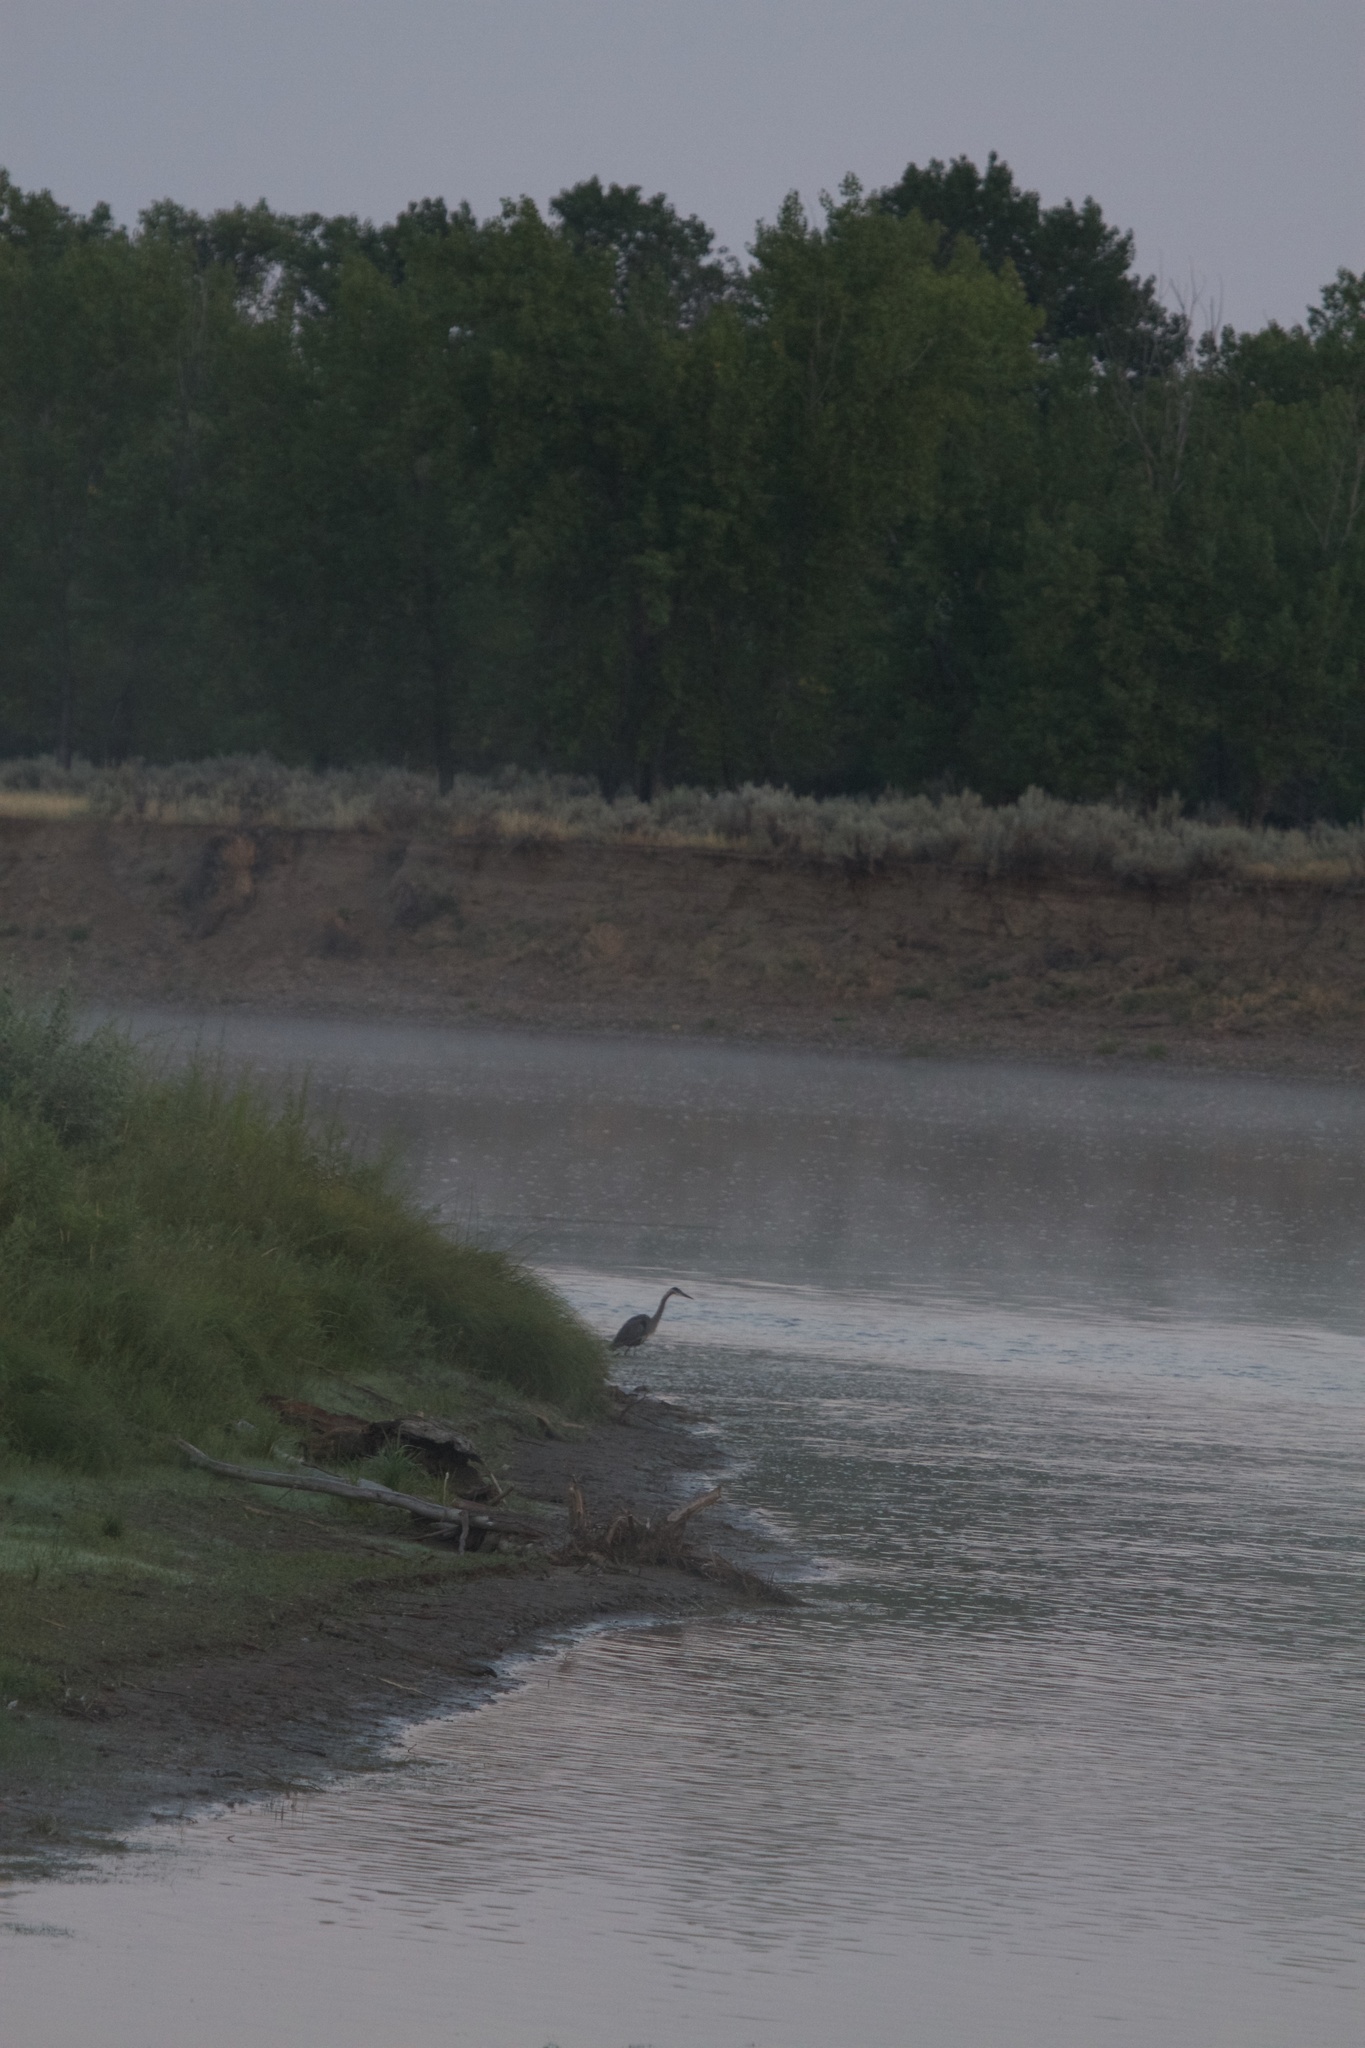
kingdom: Animalia
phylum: Chordata
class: Aves
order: Pelecaniformes
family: Ardeidae
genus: Ardea
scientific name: Ardea herodias
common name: Great blue heron
